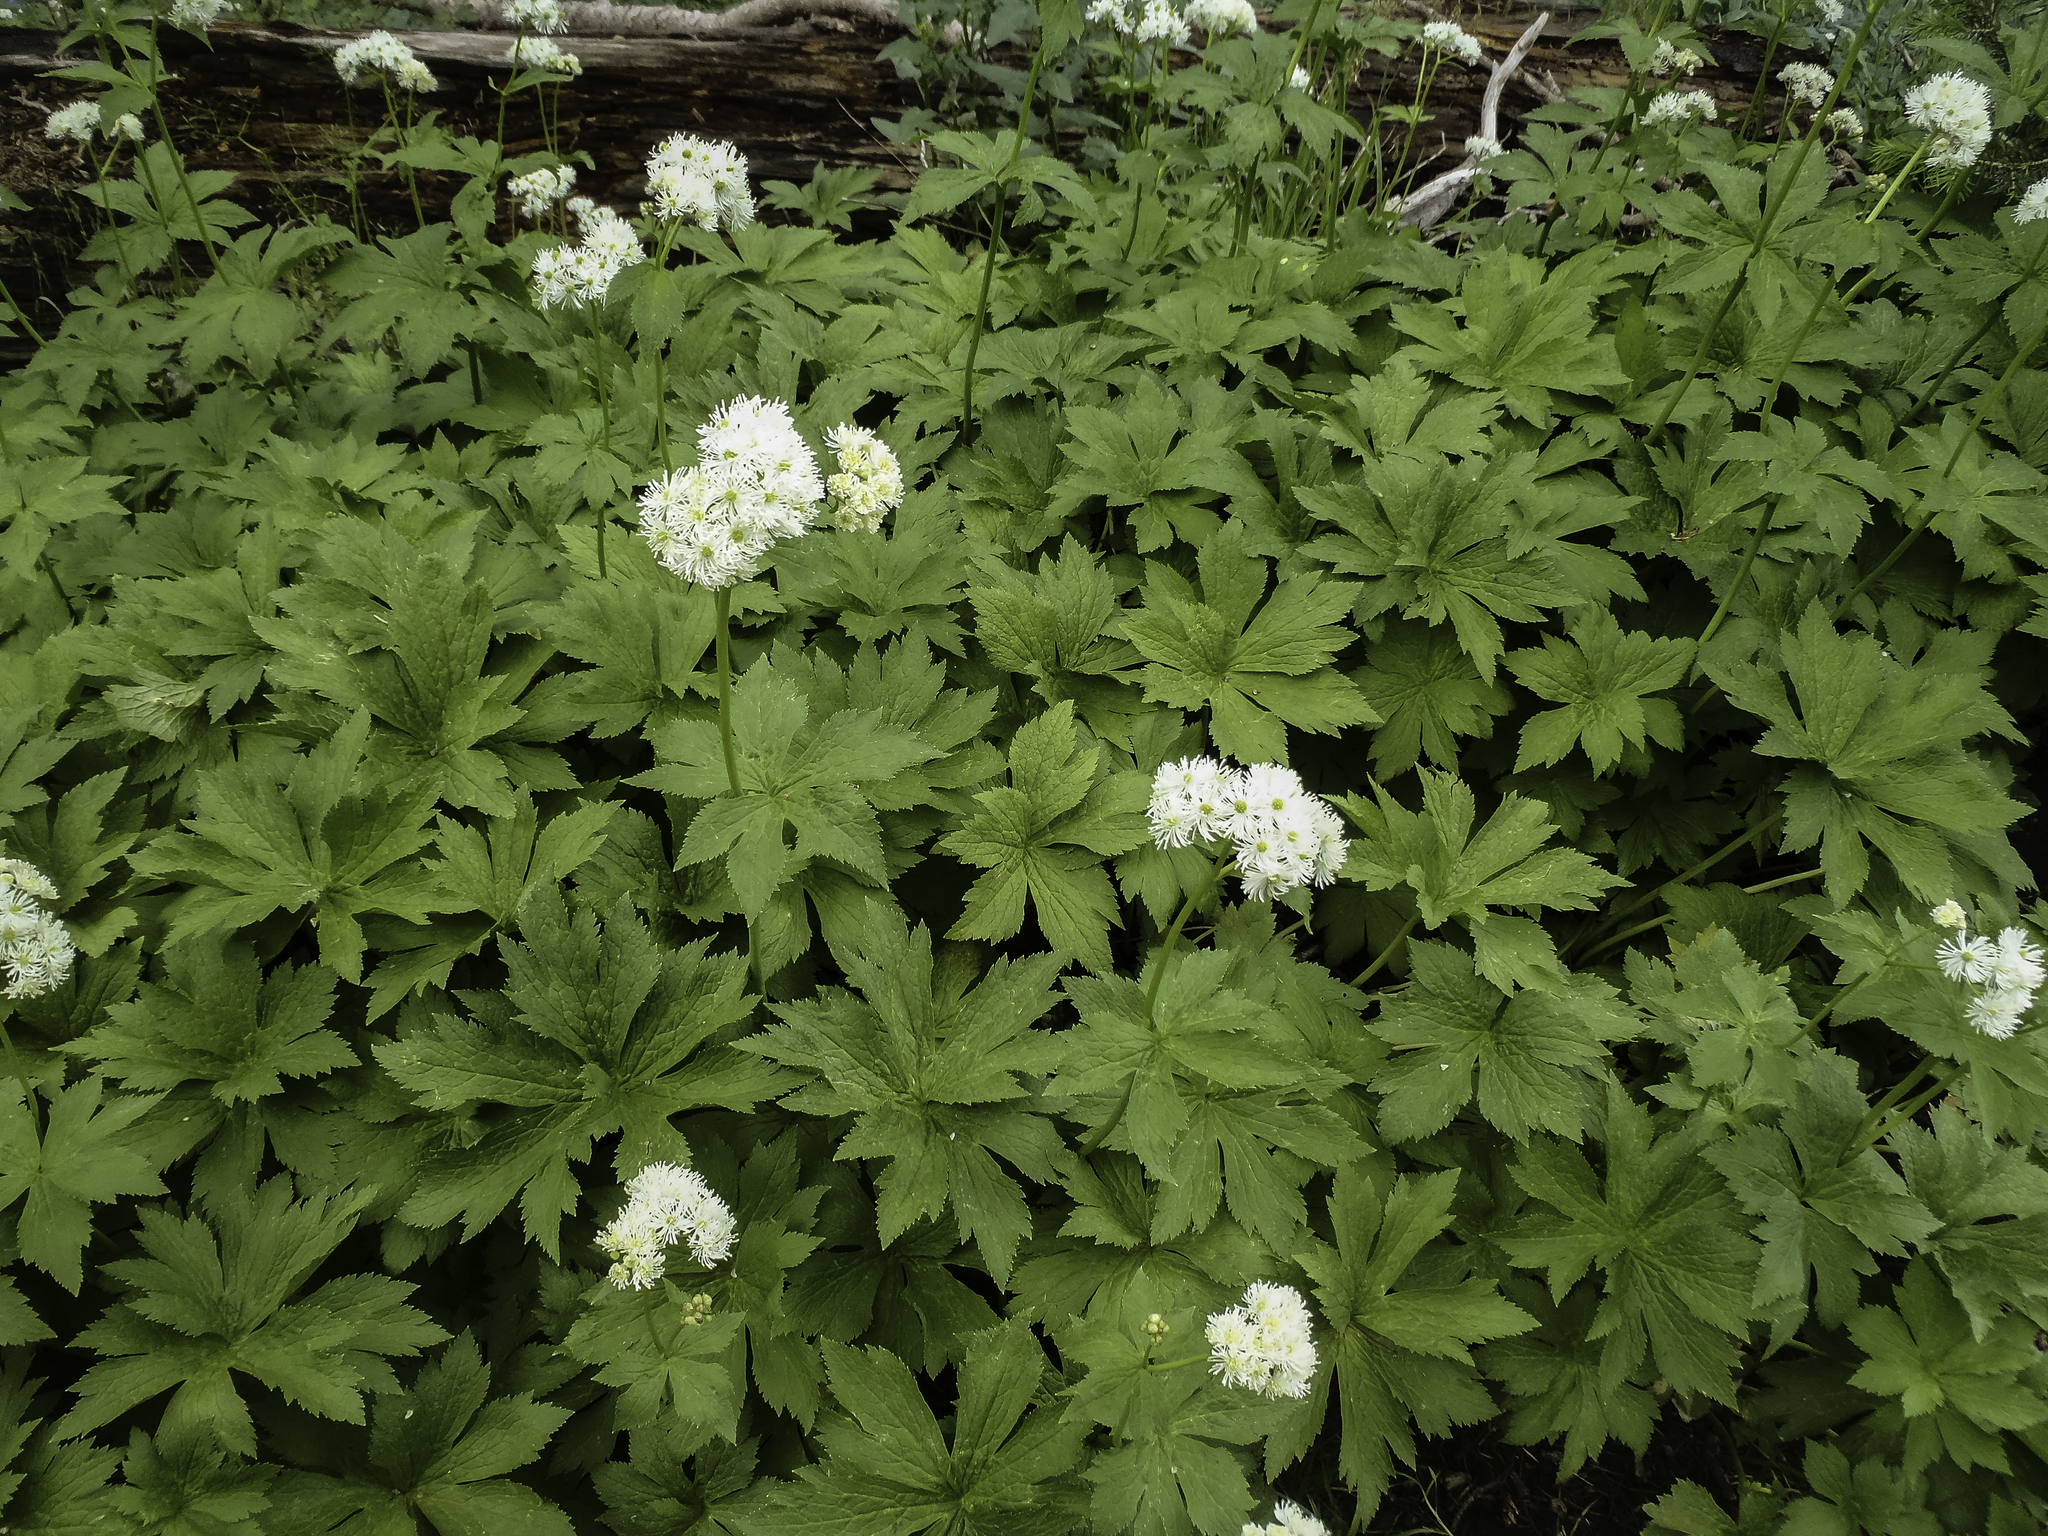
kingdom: Plantae
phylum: Tracheophyta
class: Magnoliopsida
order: Ranunculales
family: Ranunculaceae
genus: Trautvetteria
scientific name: Trautvetteria carolinensis
